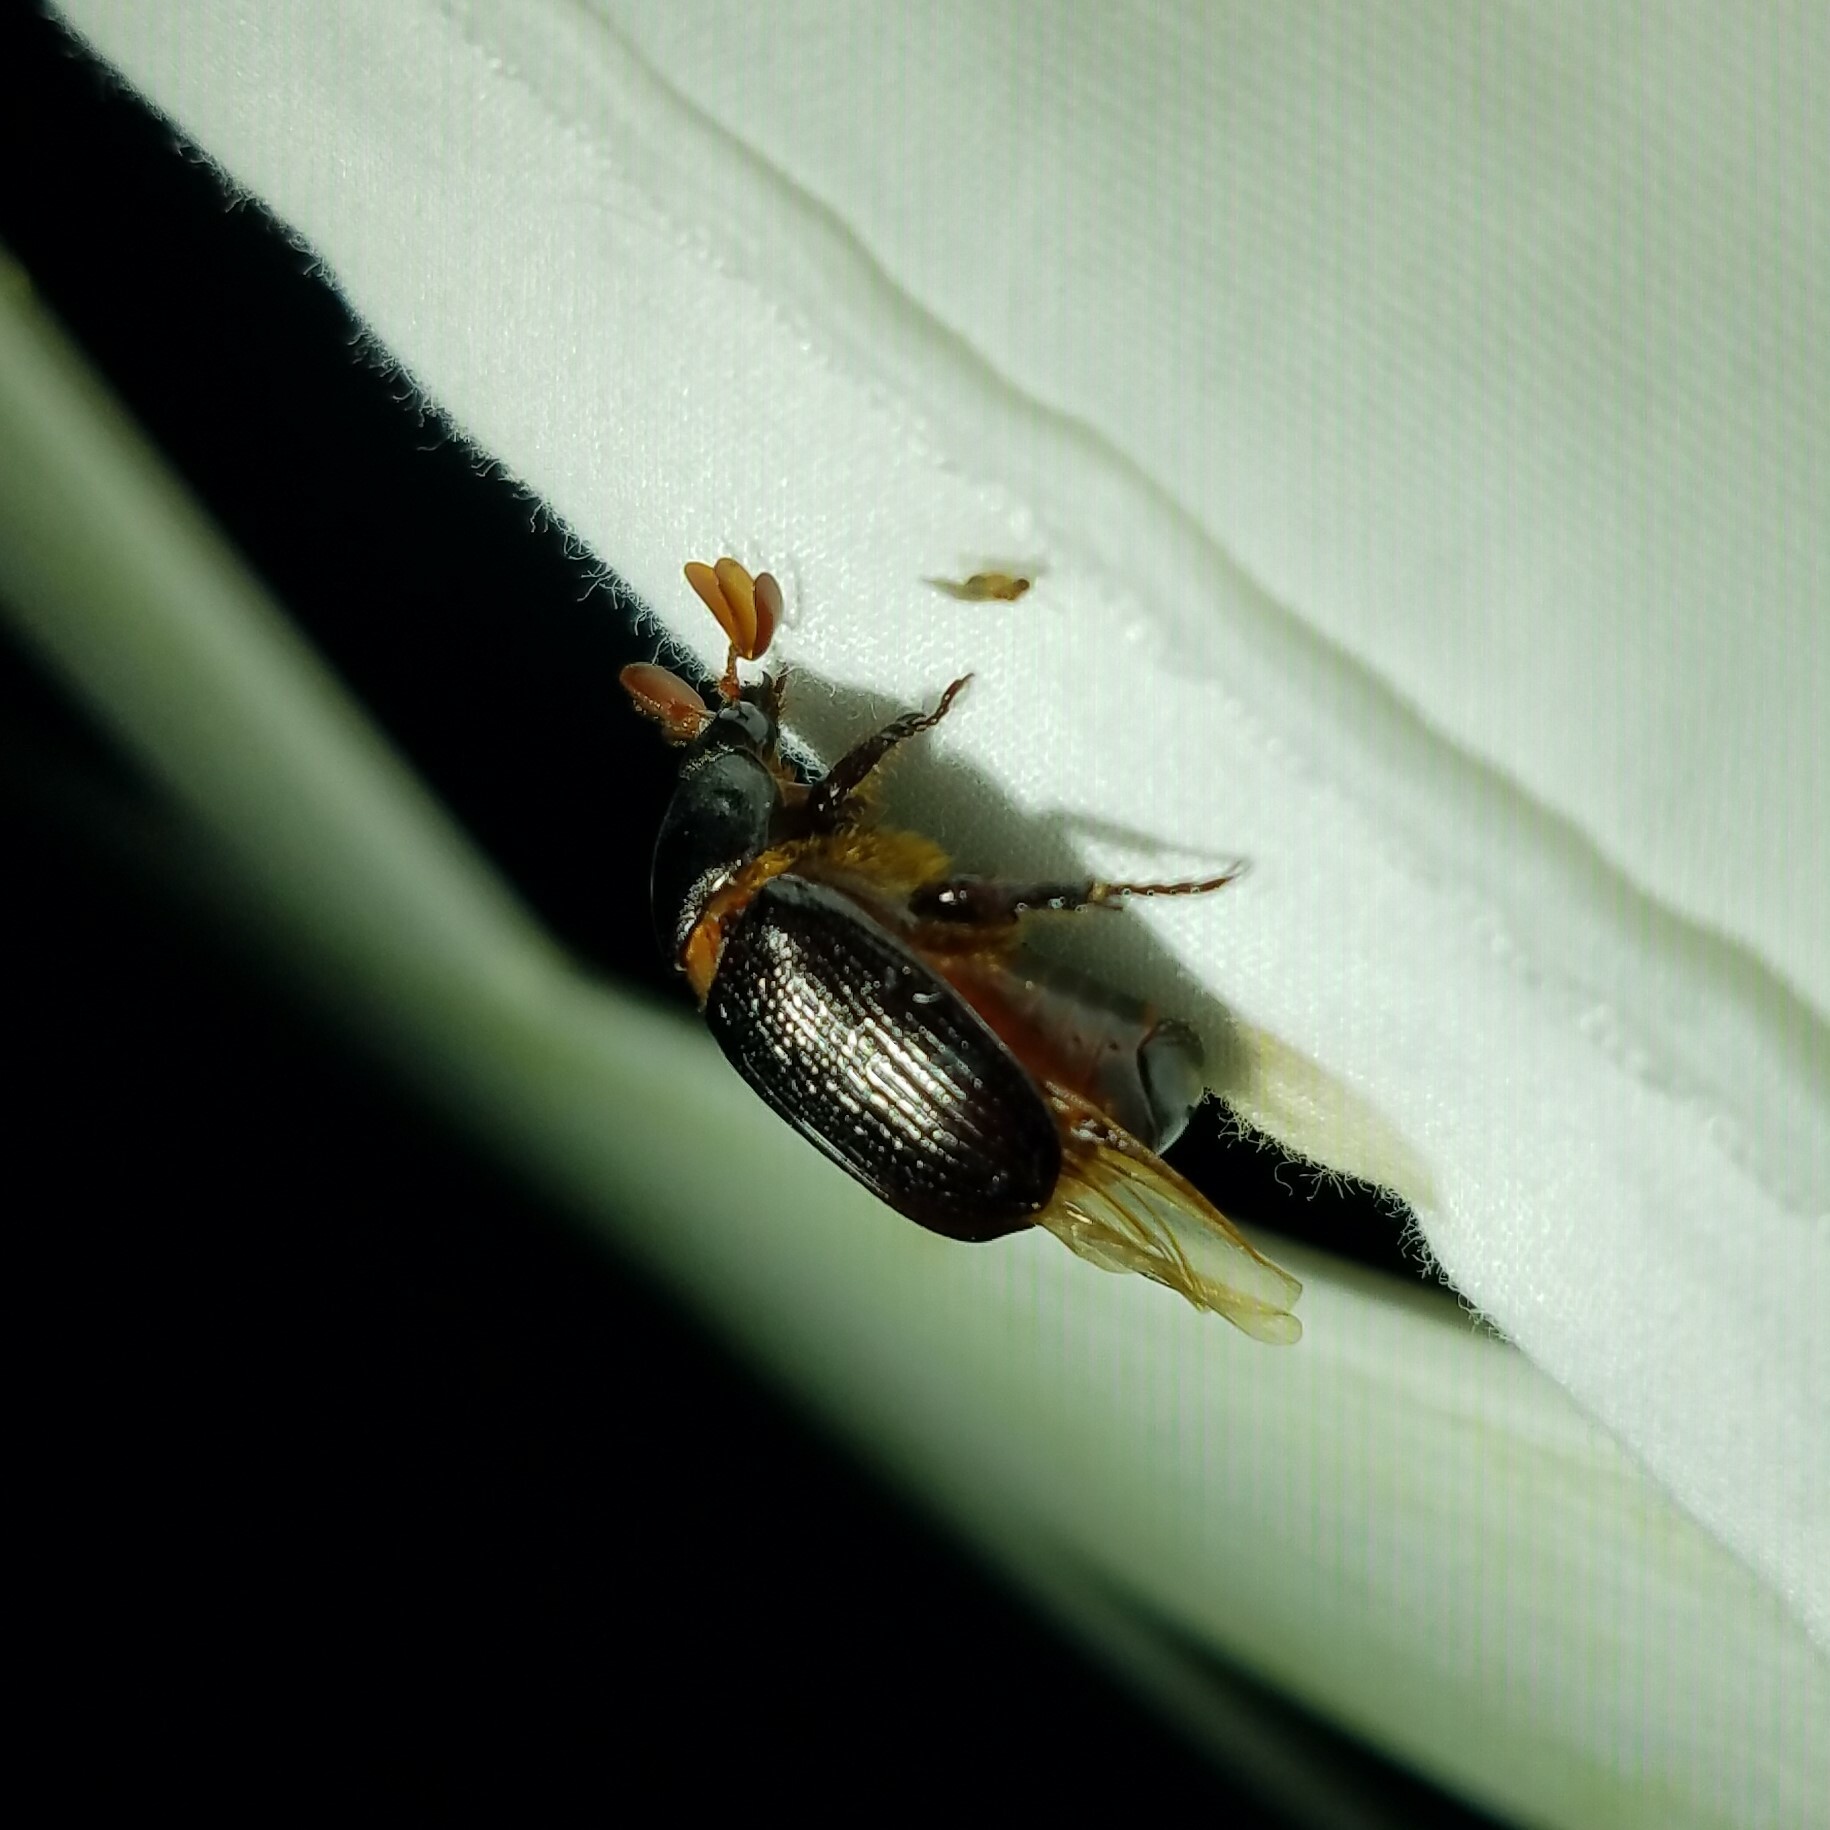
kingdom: Animalia
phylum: Arthropoda
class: Insecta
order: Coleoptera
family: Scarabaeidae
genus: Parastasia
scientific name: Parastasia brevipes
